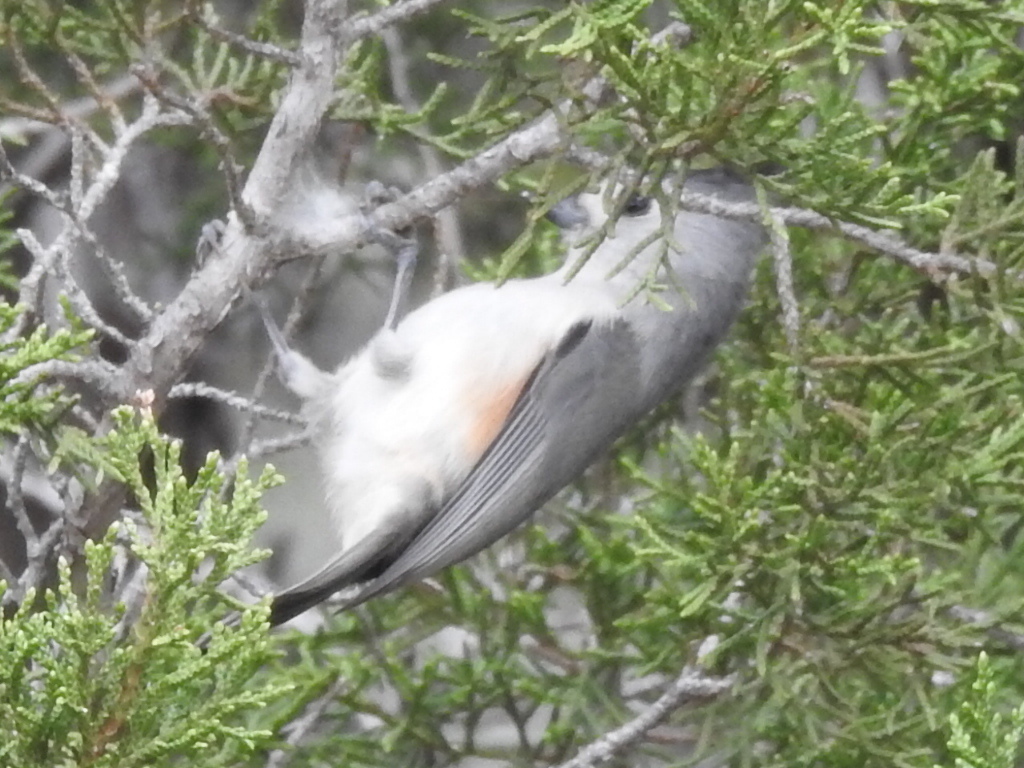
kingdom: Animalia
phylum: Chordata
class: Aves
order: Passeriformes
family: Paridae
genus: Baeolophus
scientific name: Baeolophus atricristatus
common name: Black-crested titmouse
